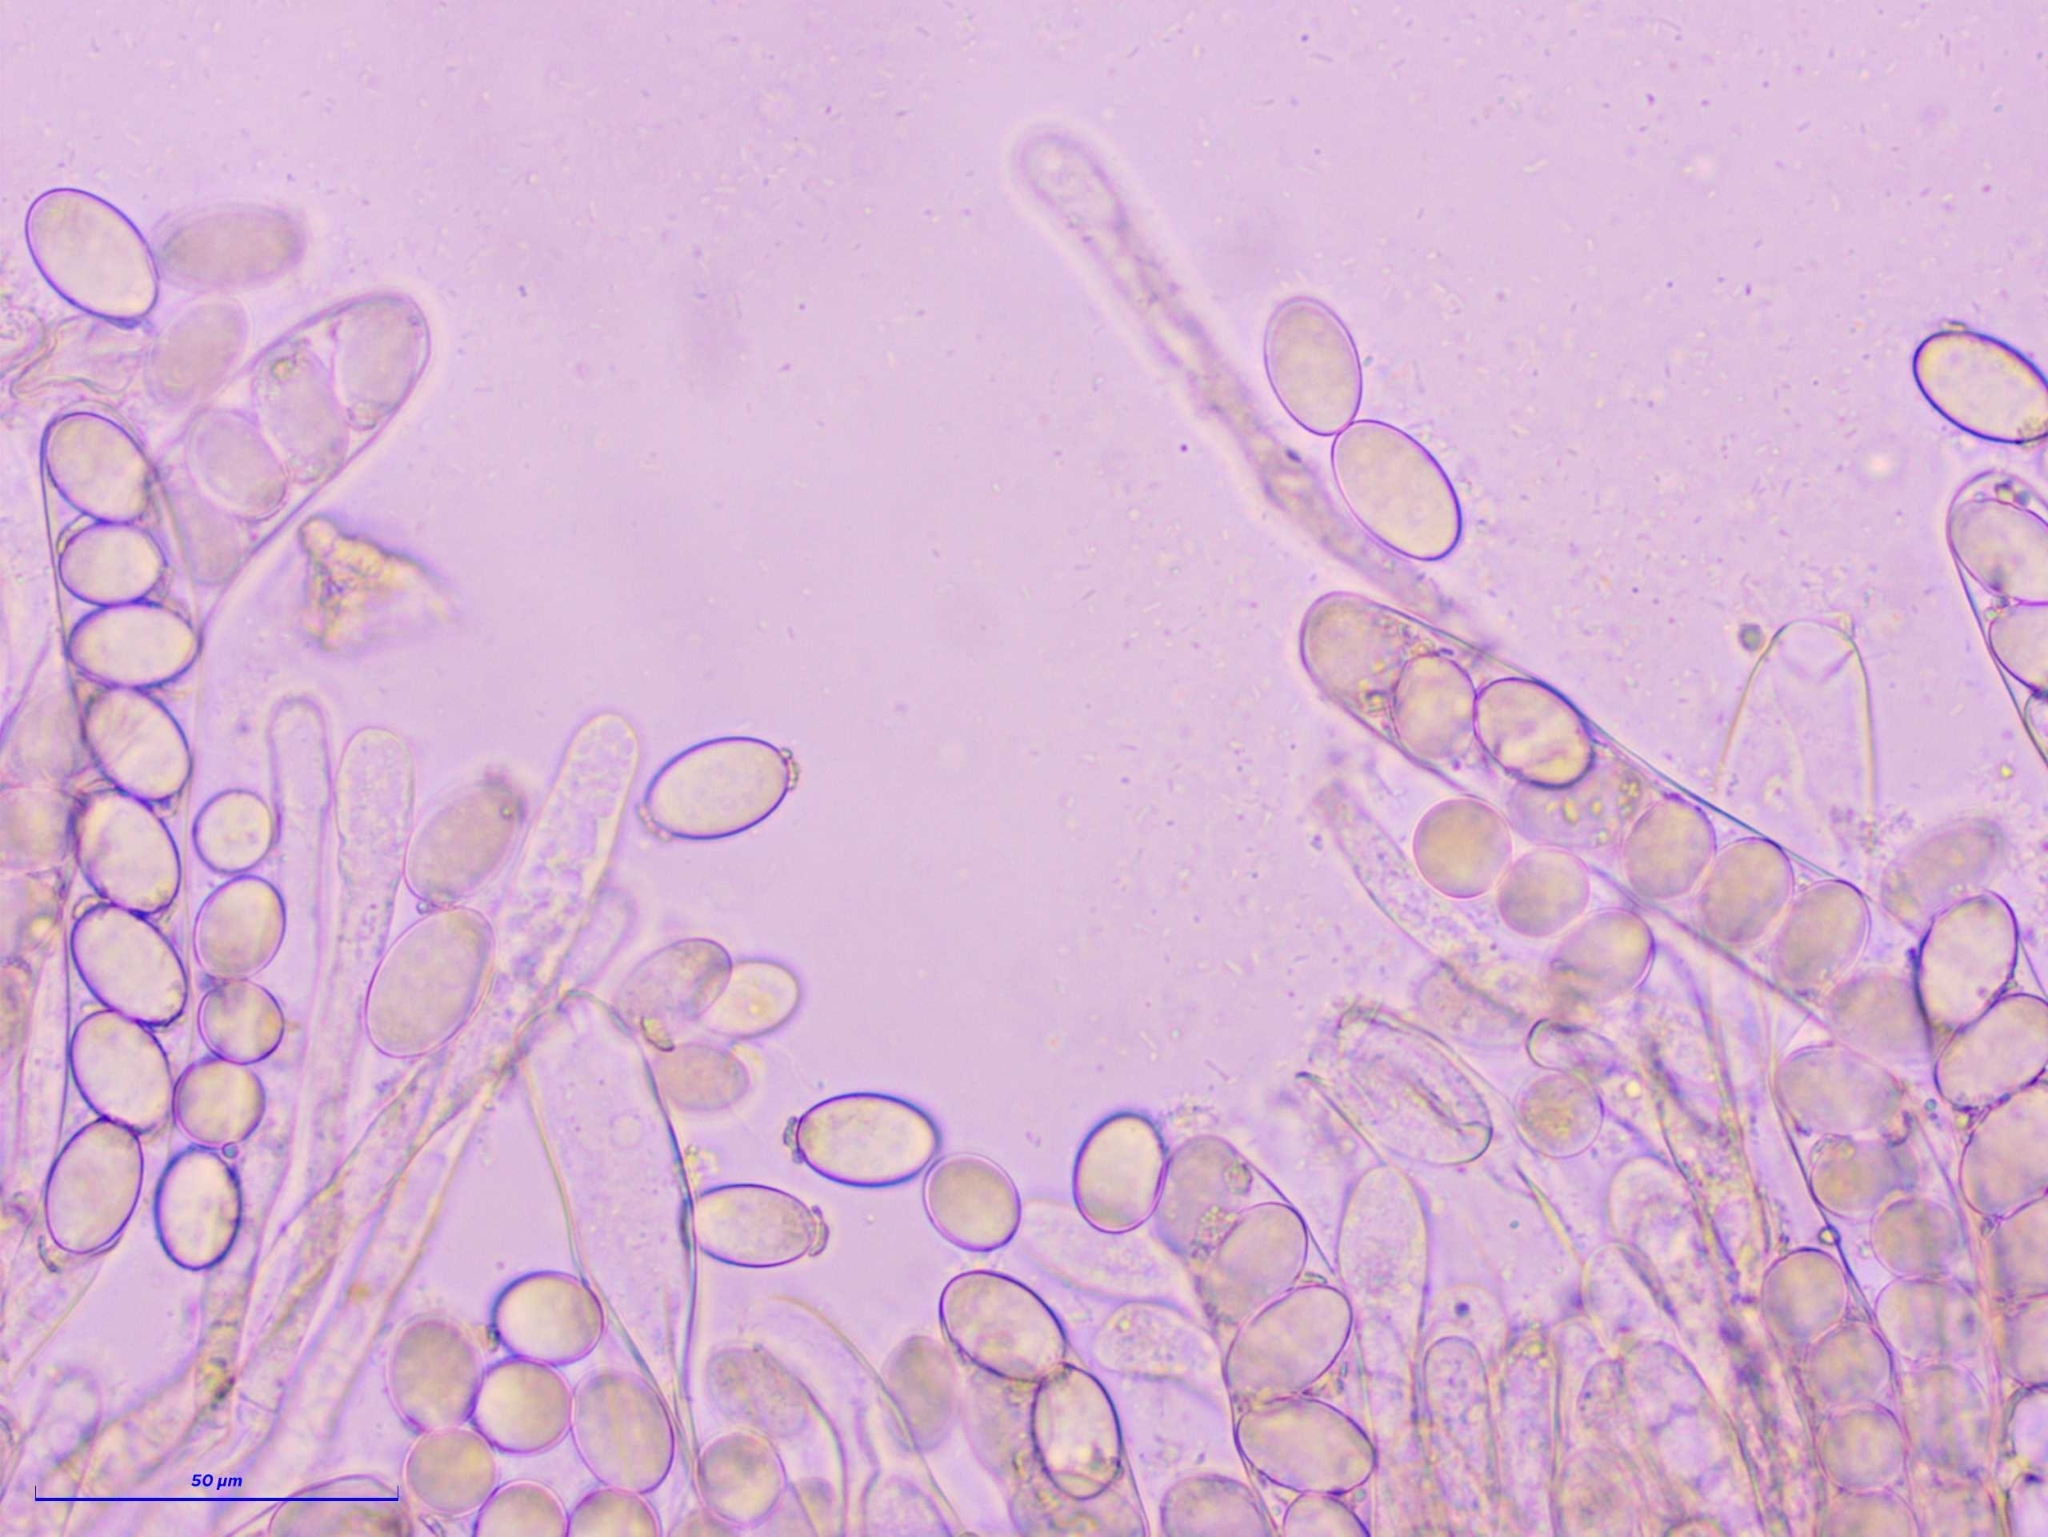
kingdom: Fungi
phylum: Ascomycota
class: Pezizomycetes
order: Pezizales
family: Morchellaceae
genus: Morchella
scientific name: Morchella vulgaris
